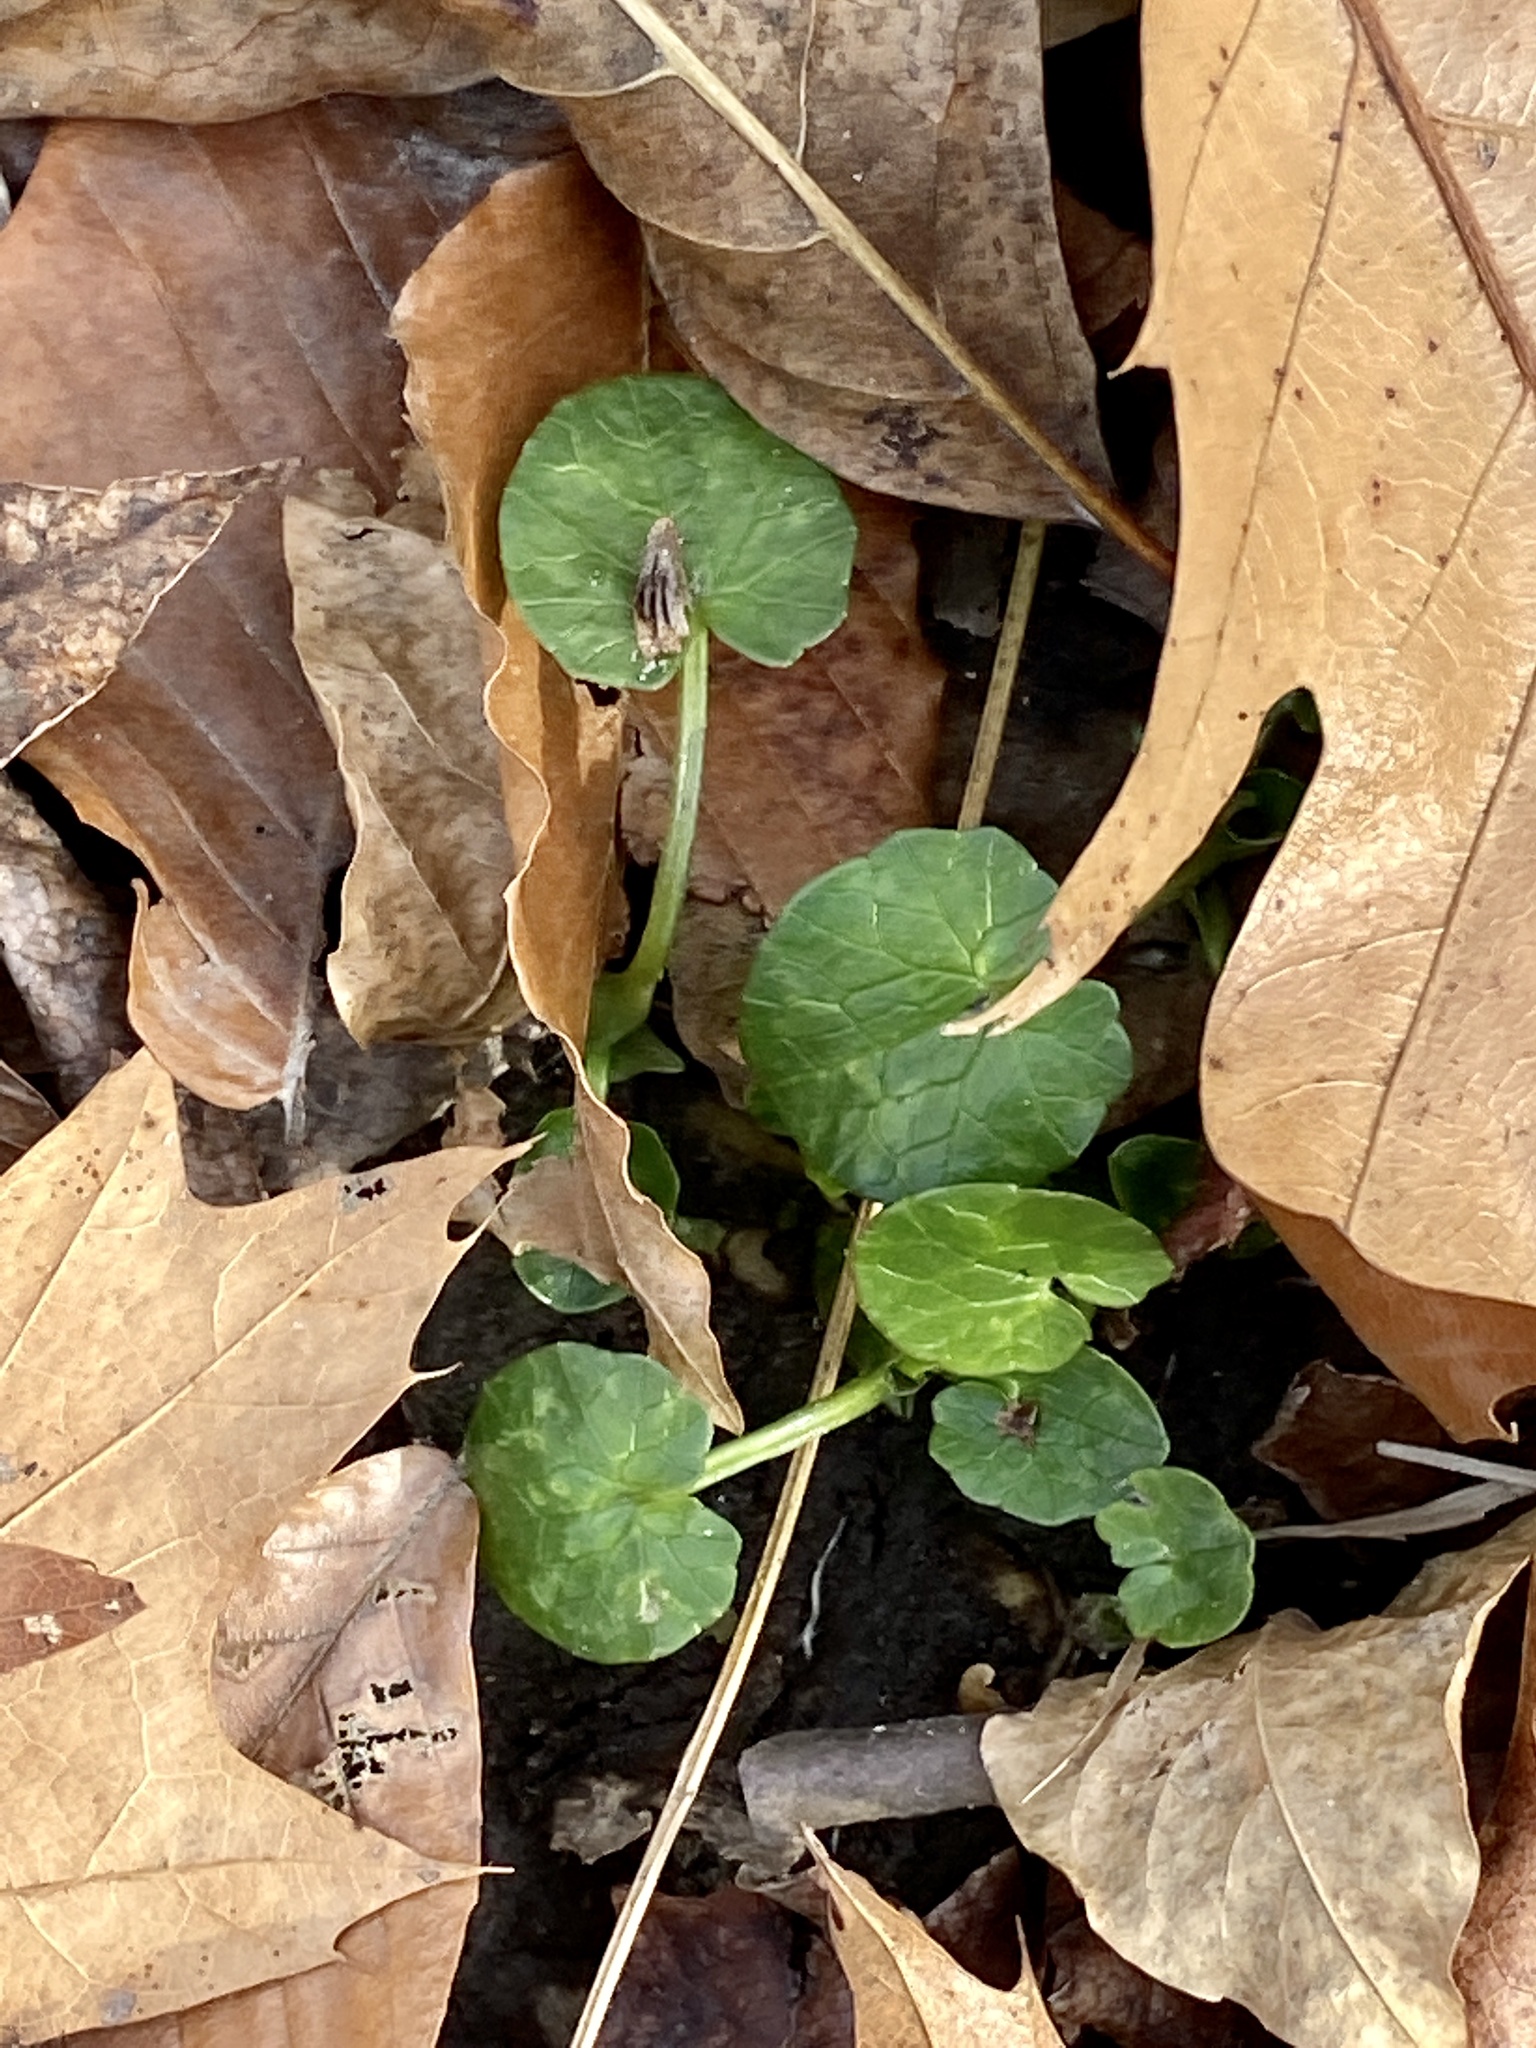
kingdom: Plantae
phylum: Tracheophyta
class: Magnoliopsida
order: Ranunculales
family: Ranunculaceae
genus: Ficaria
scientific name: Ficaria verna
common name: Lesser celandine
